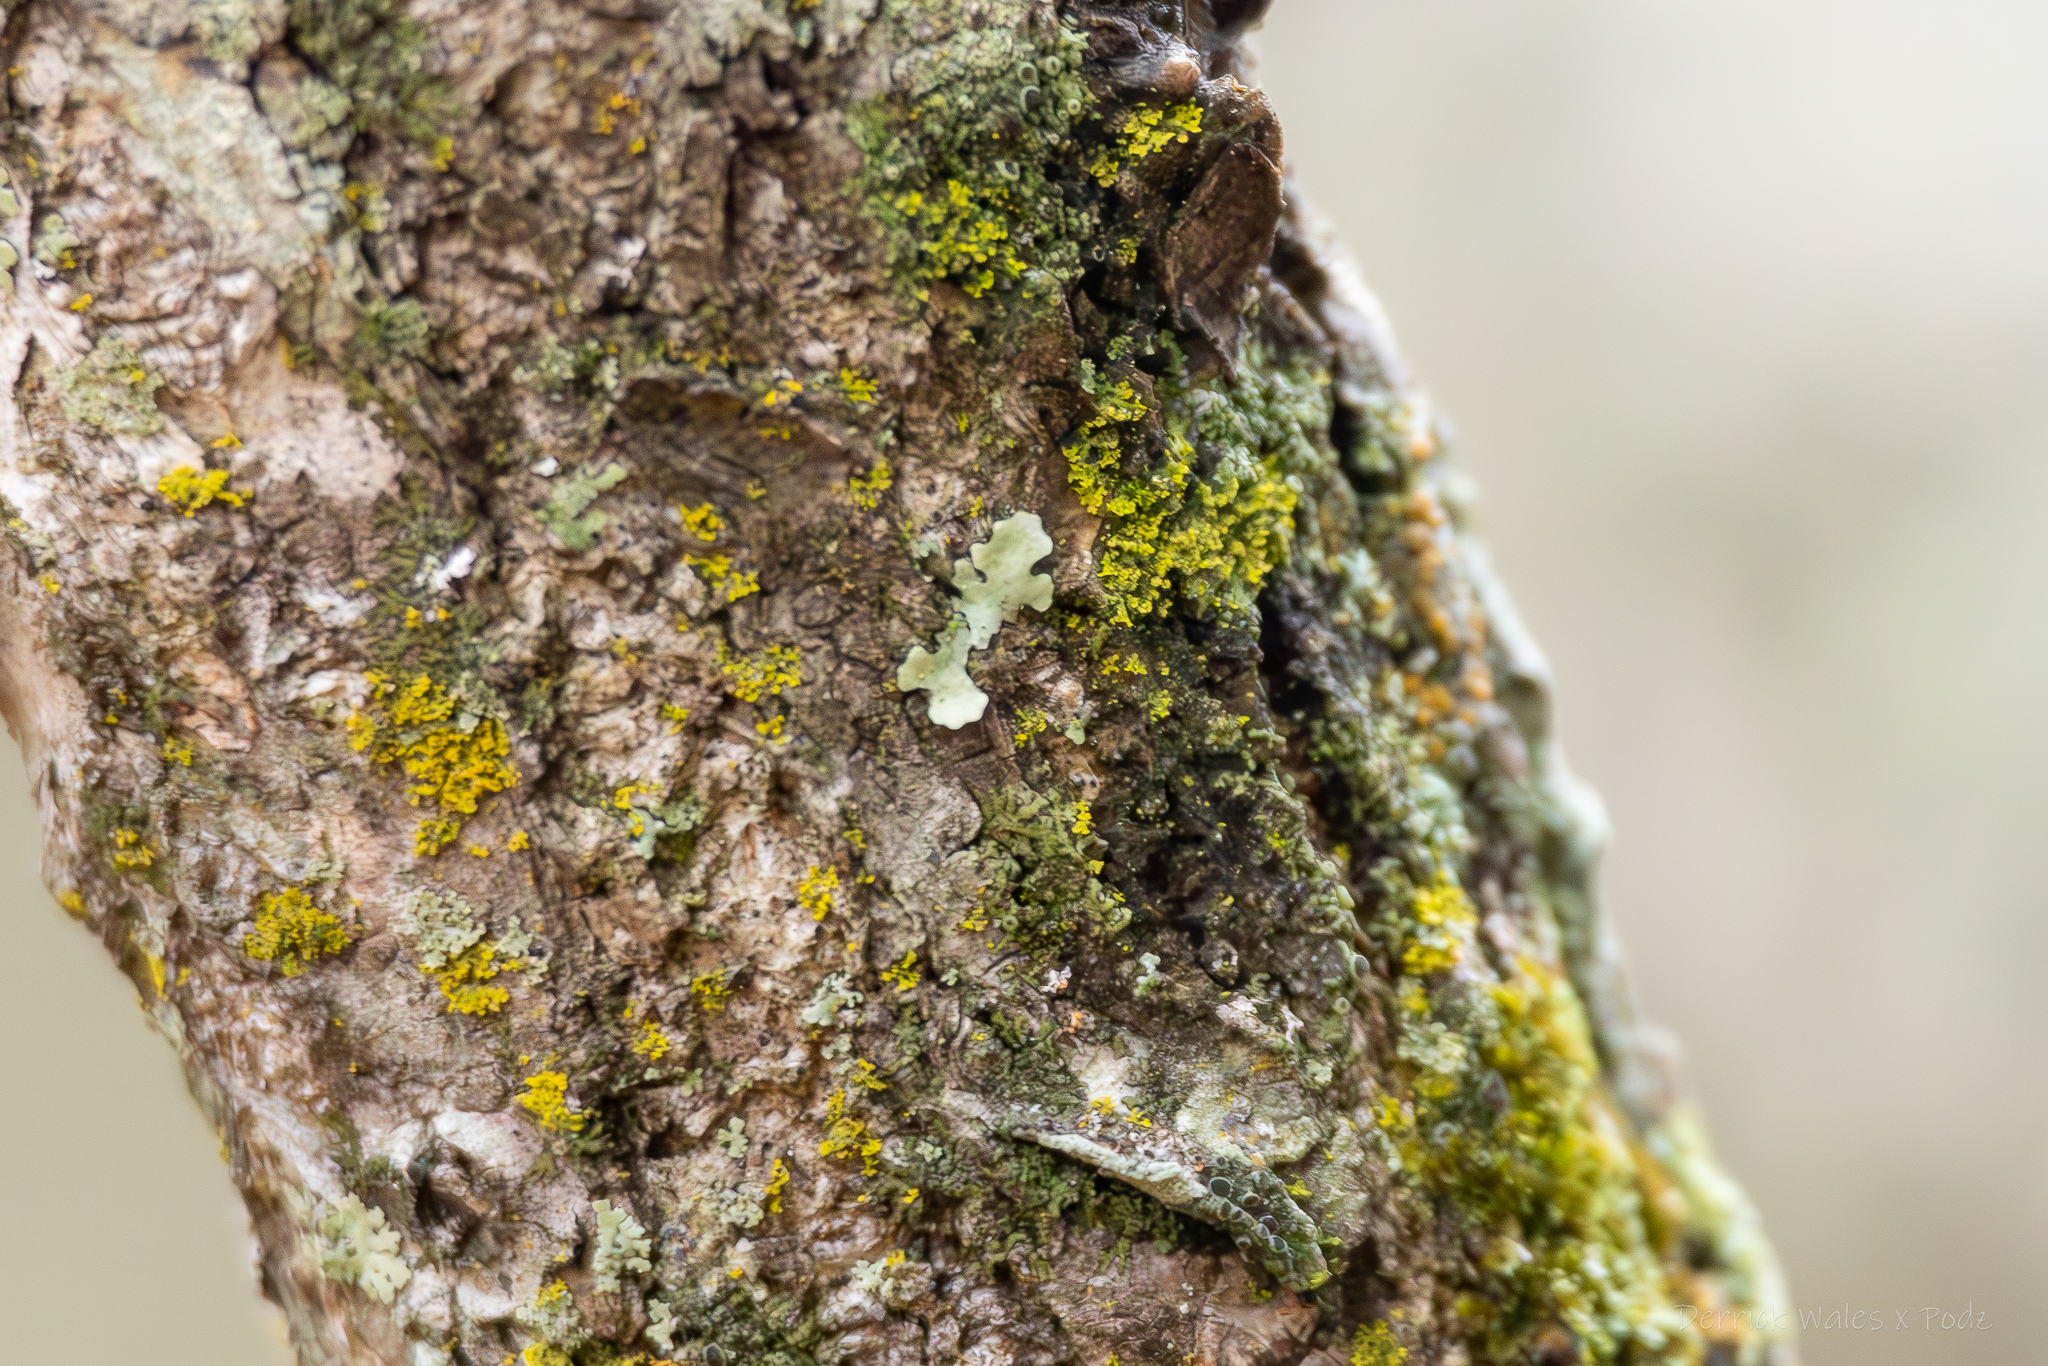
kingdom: Fungi
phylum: Ascomycota
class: Lecanoromycetes
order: Teloschistales
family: Teloschistaceae
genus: Gallowayella
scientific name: Gallowayella weberi
